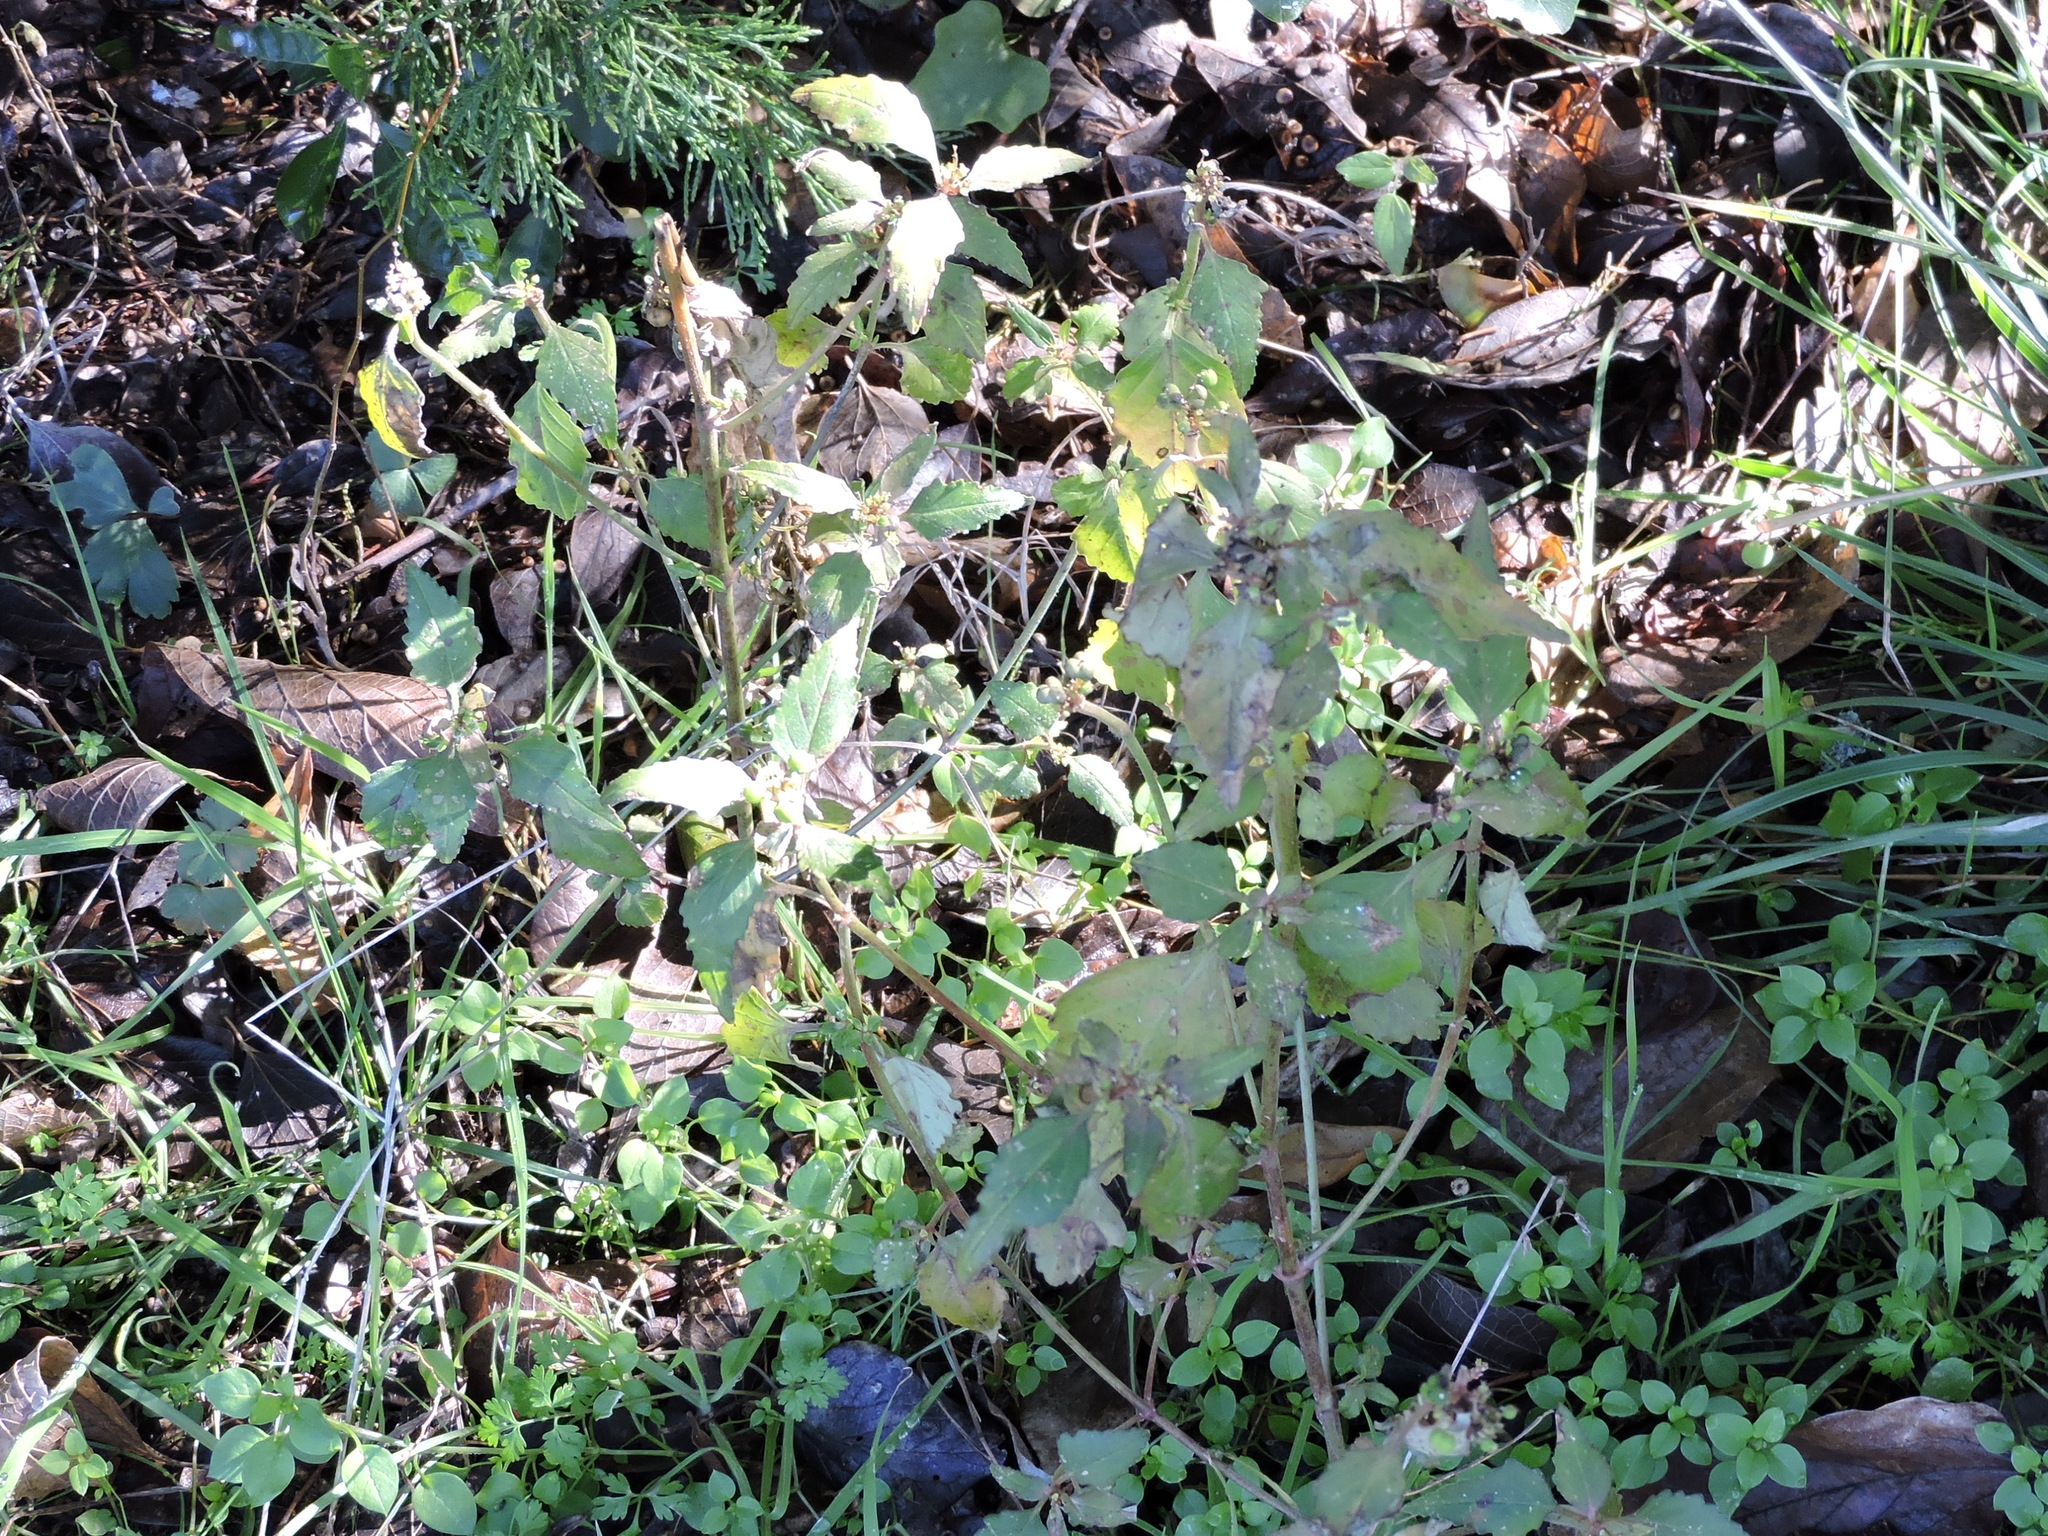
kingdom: Plantae
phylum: Tracheophyta
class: Magnoliopsida
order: Malpighiales
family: Euphorbiaceae
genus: Euphorbia
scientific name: Euphorbia dentata
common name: Dentate spurge
